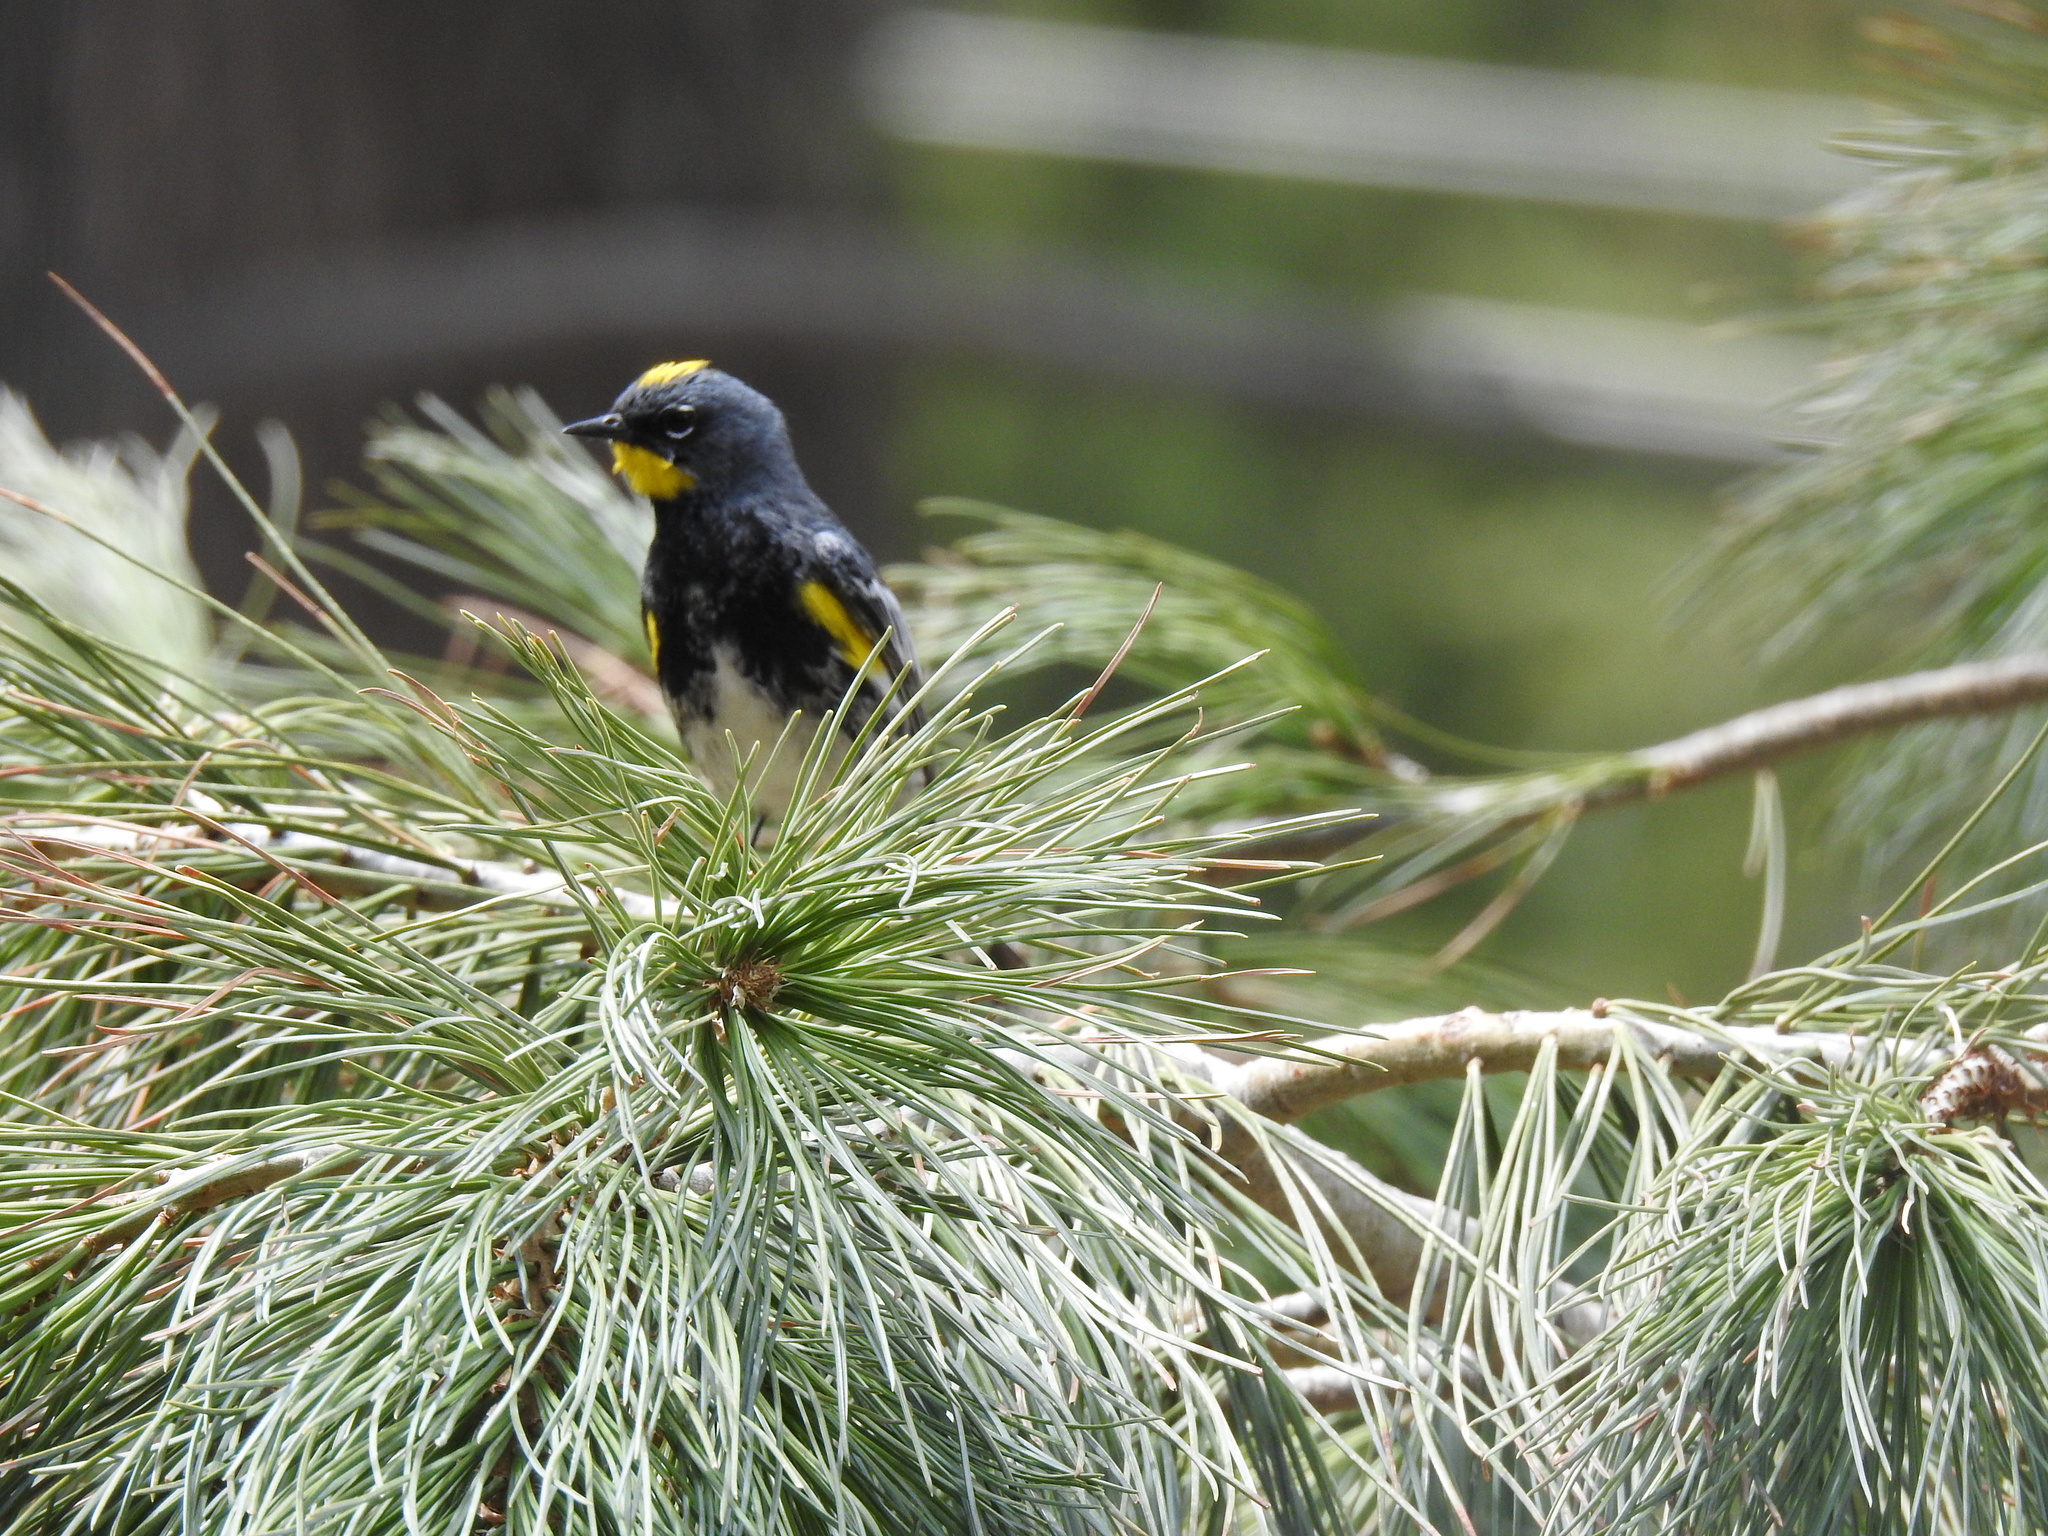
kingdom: Animalia
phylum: Chordata
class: Aves
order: Passeriformes
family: Parulidae
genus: Setophaga
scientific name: Setophaga coronata
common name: Myrtle warbler
